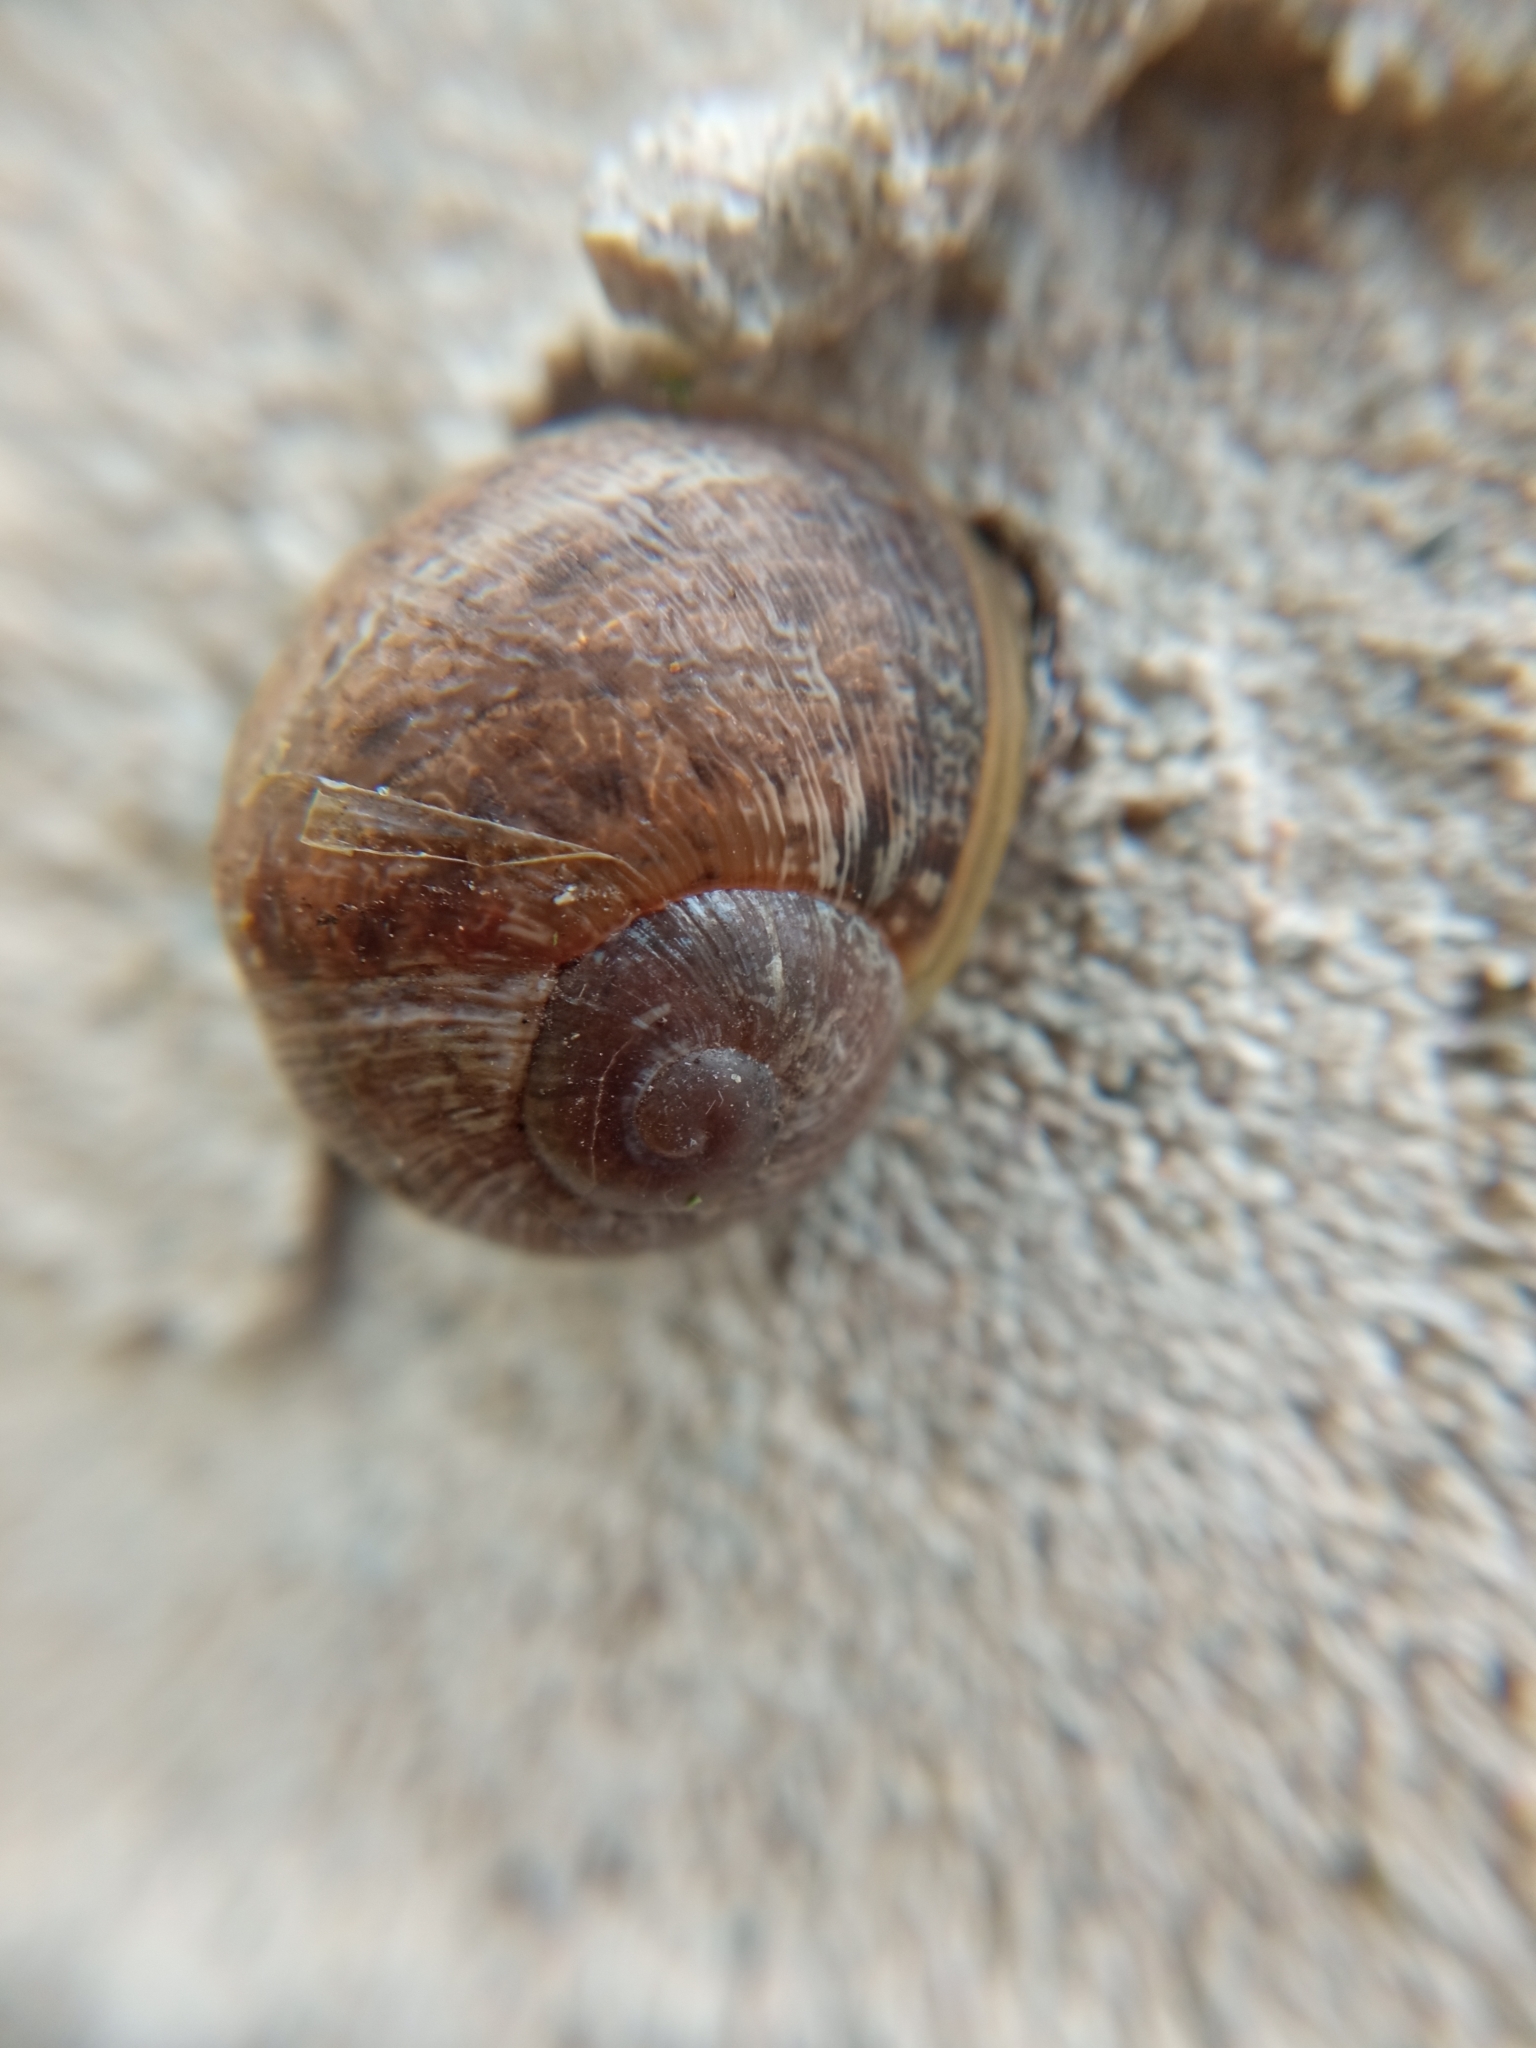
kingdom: Animalia
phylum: Mollusca
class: Gastropoda
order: Stylommatophora
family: Helicidae
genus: Cornu
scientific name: Cornu aspersum
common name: Brown garden snail
